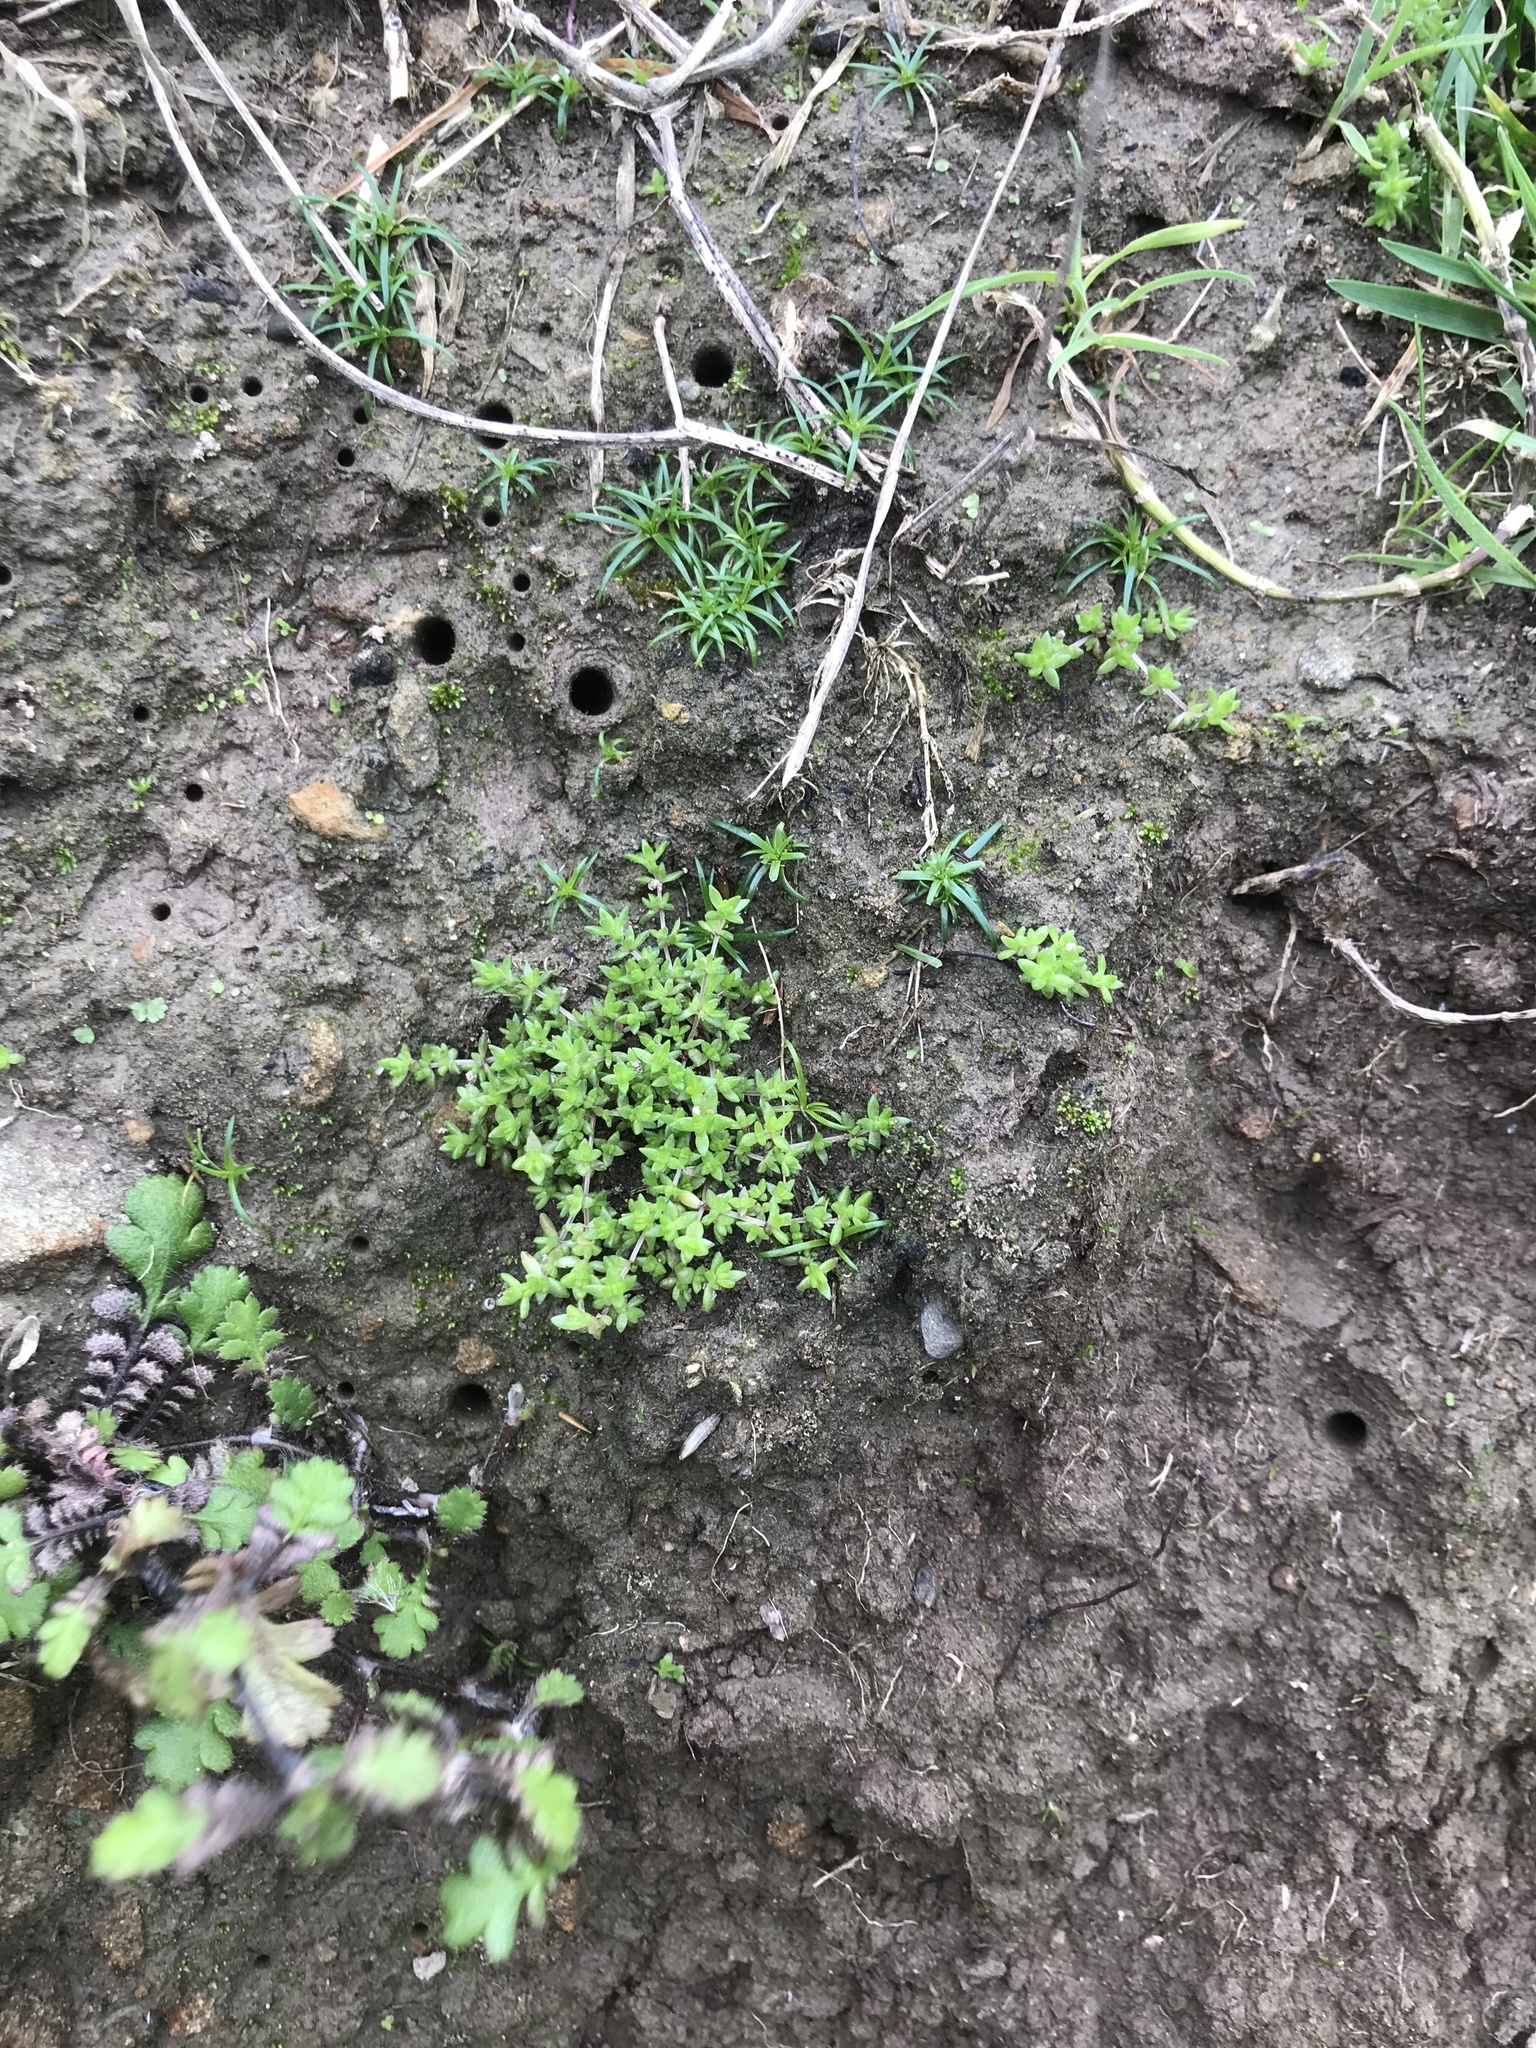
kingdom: Plantae
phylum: Tracheophyta
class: Magnoliopsida
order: Saxifragales
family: Crassulaceae
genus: Crassula
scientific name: Crassula mataikona
